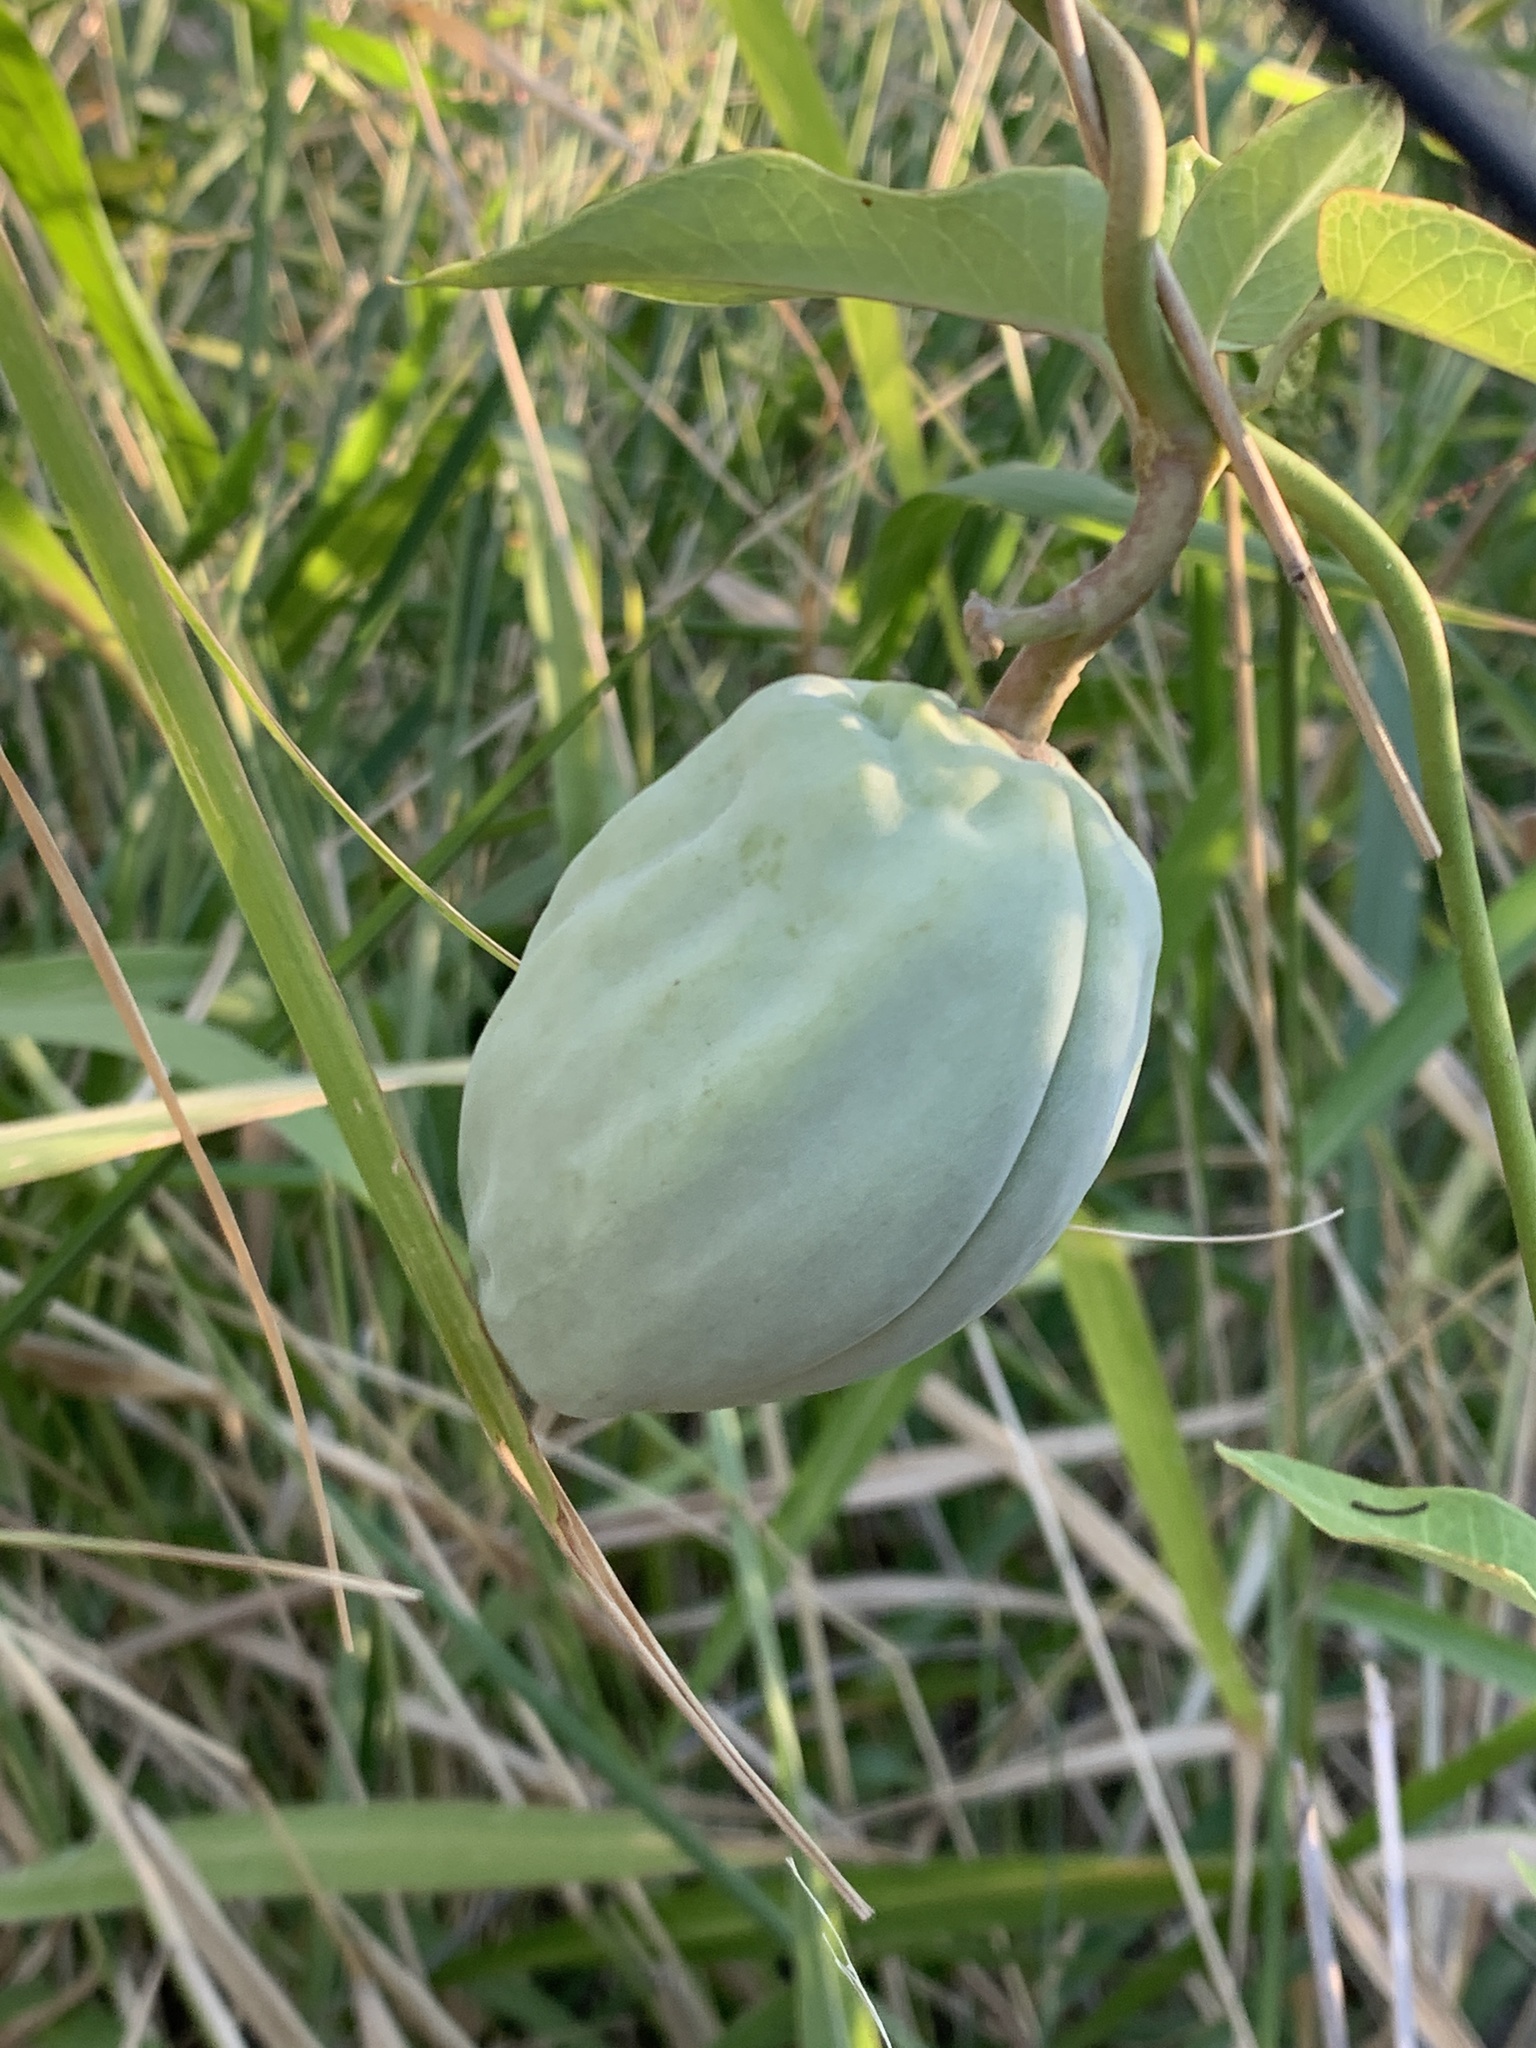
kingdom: Plantae
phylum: Tracheophyta
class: Magnoliopsida
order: Gentianales
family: Apocynaceae
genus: Araujia
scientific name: Araujia sericifera
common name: White bladderflower
